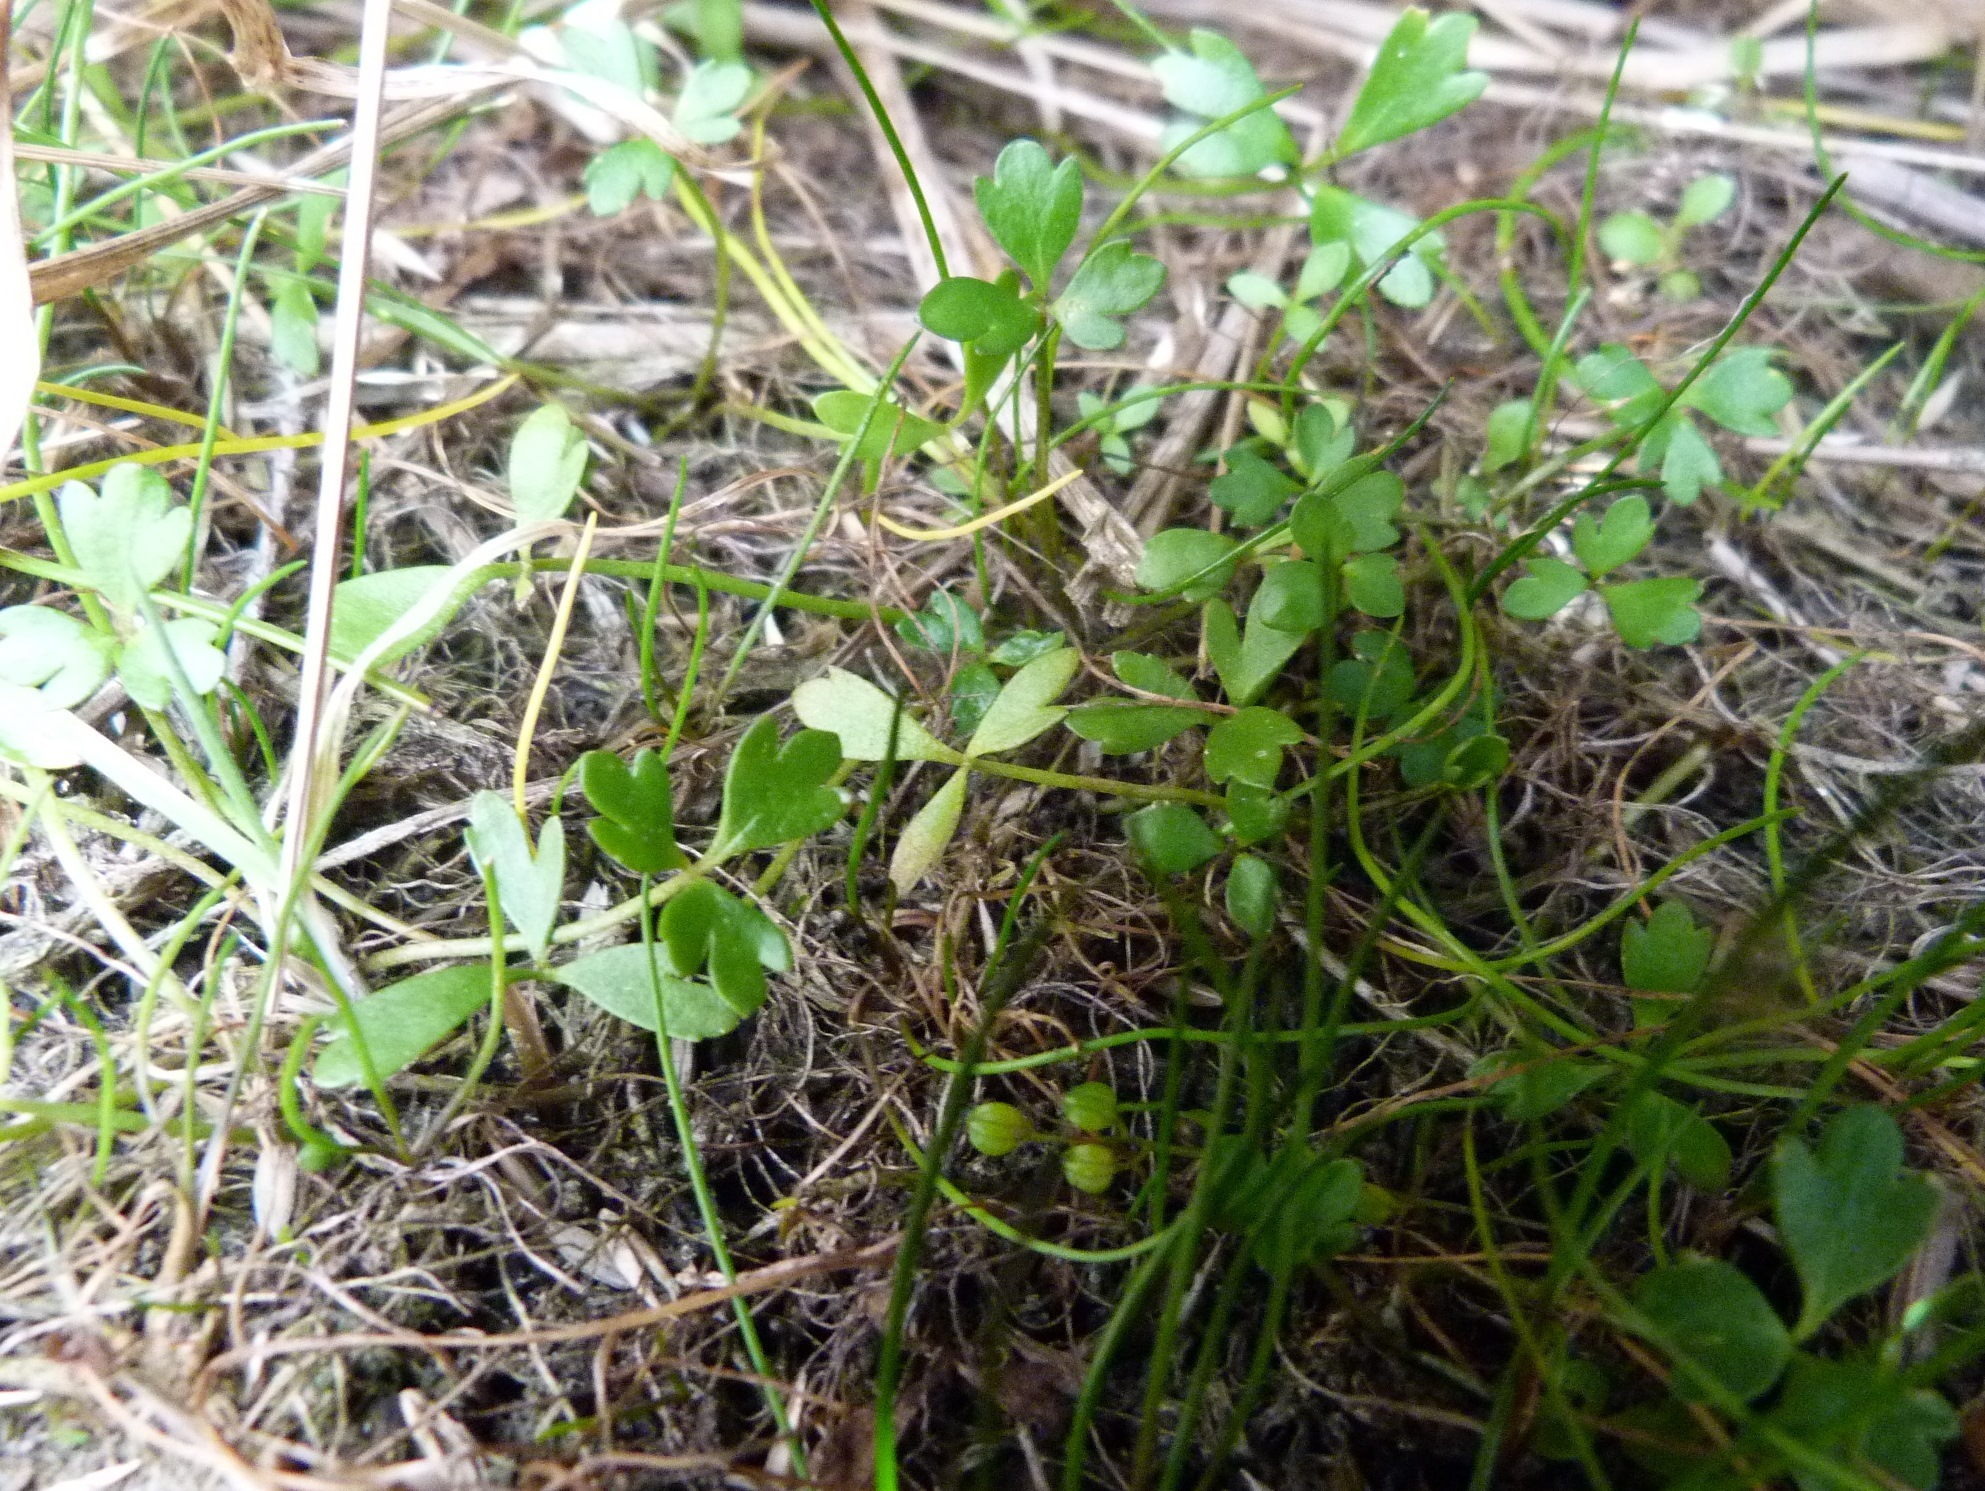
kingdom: Plantae
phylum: Tracheophyta
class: Magnoliopsida
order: Ranunculales
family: Ranunculaceae
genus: Ranunculus
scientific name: Ranunculus acaulis
